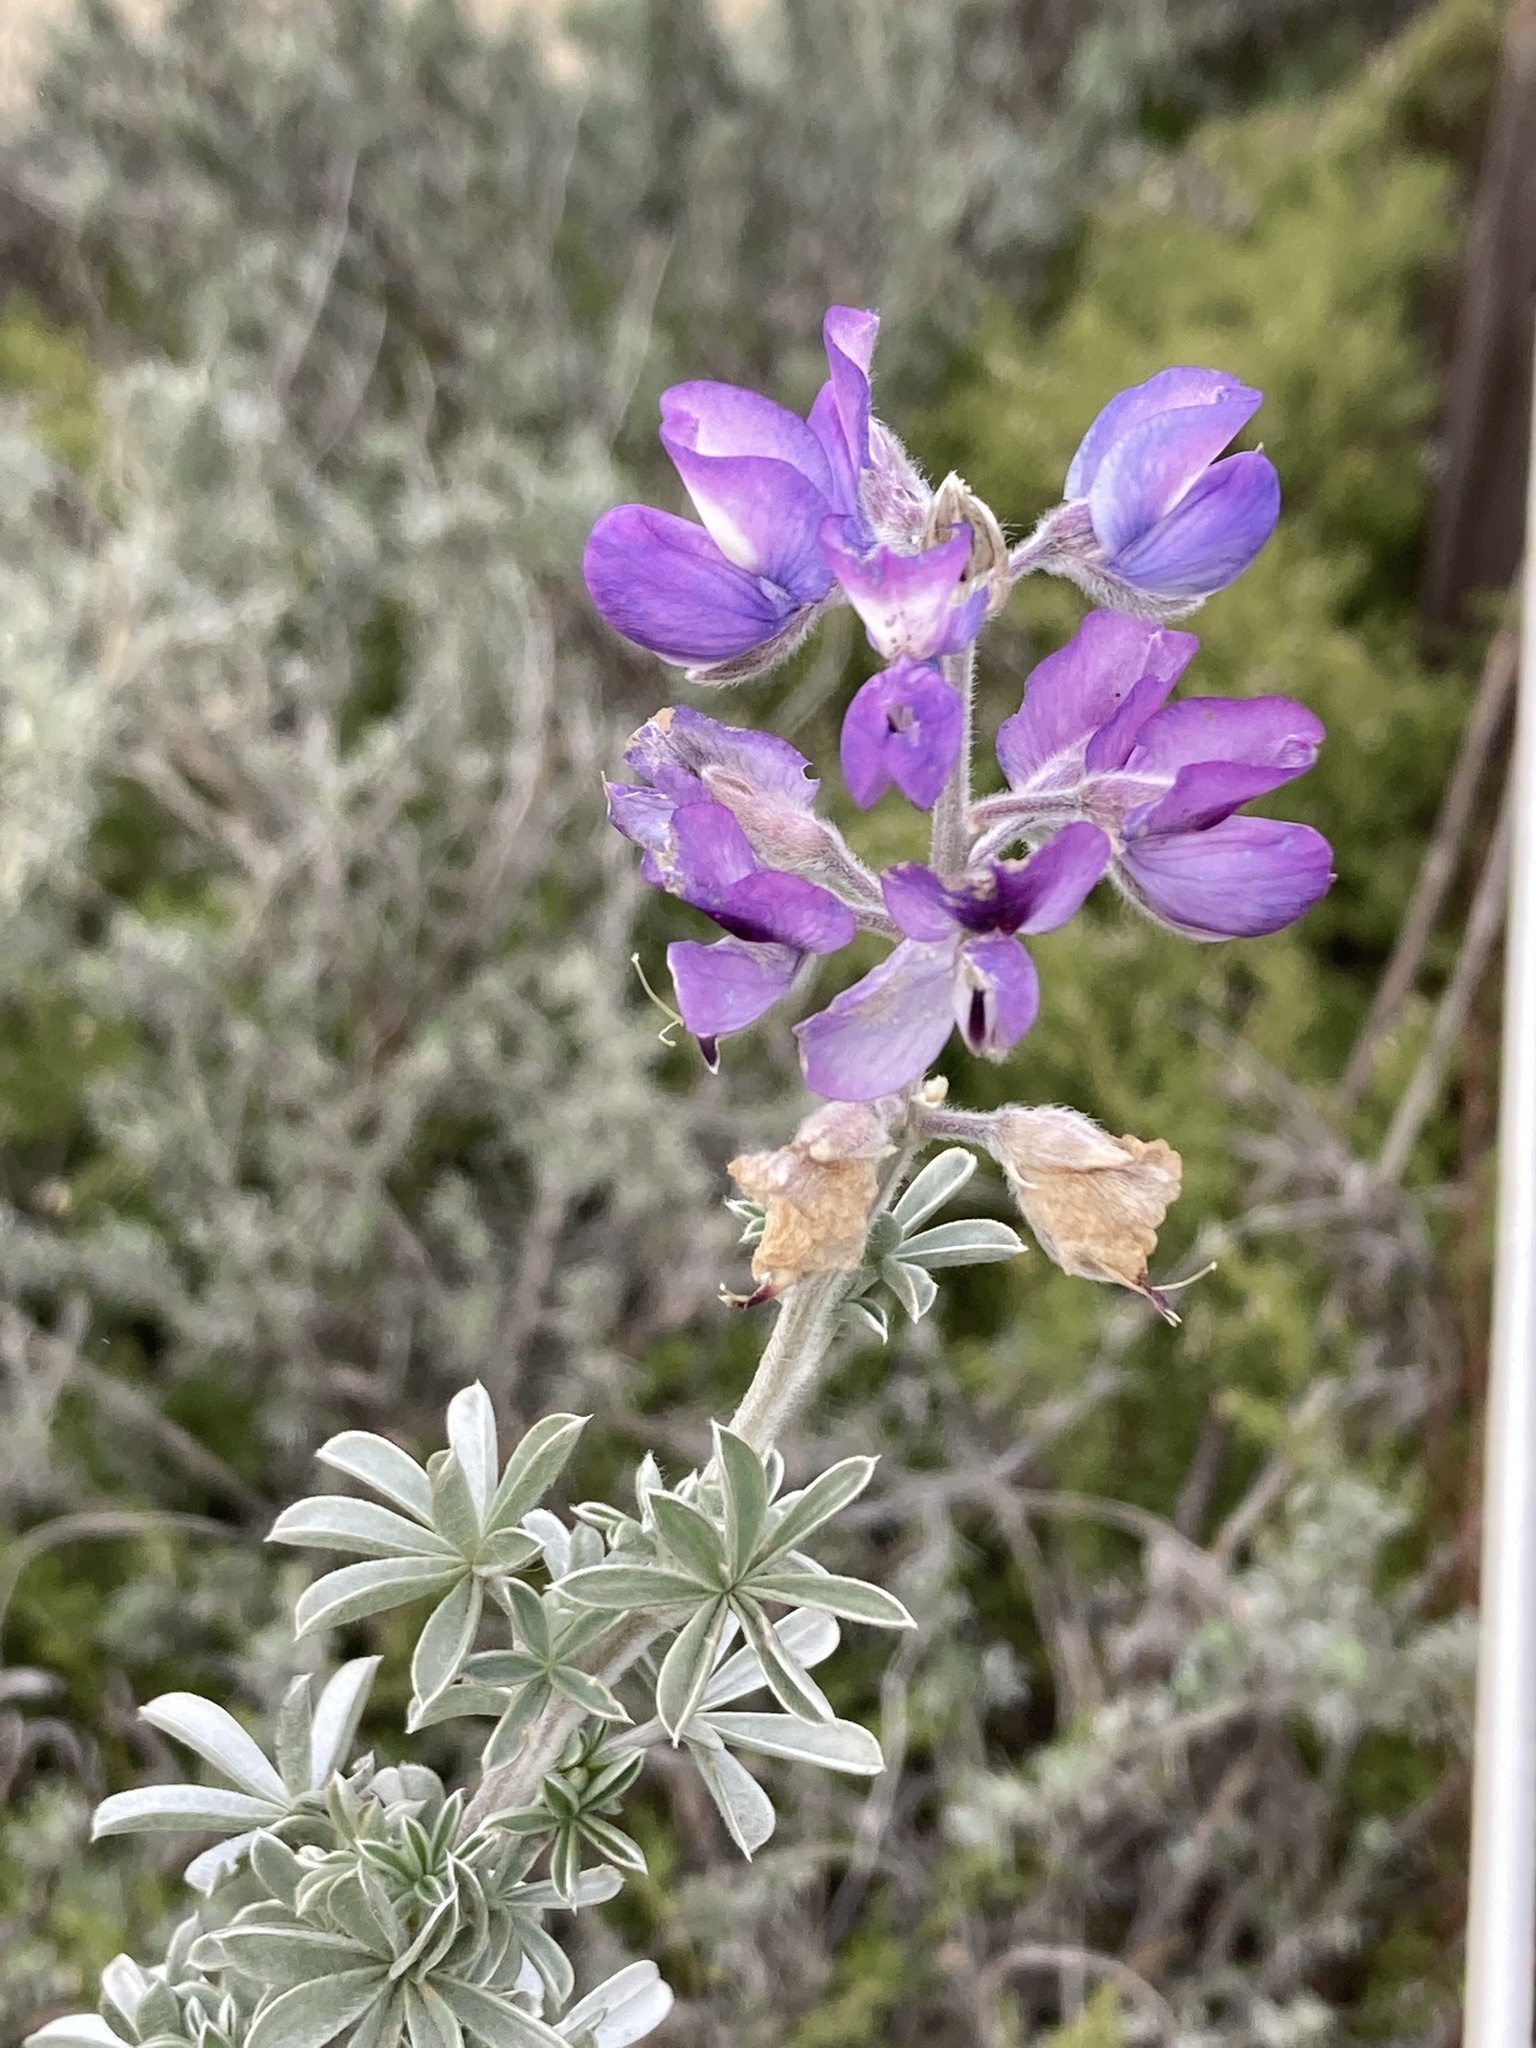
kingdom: Plantae
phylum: Tracheophyta
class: Magnoliopsida
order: Fabales
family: Fabaceae
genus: Lupinus
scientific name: Lupinus chamissonis
